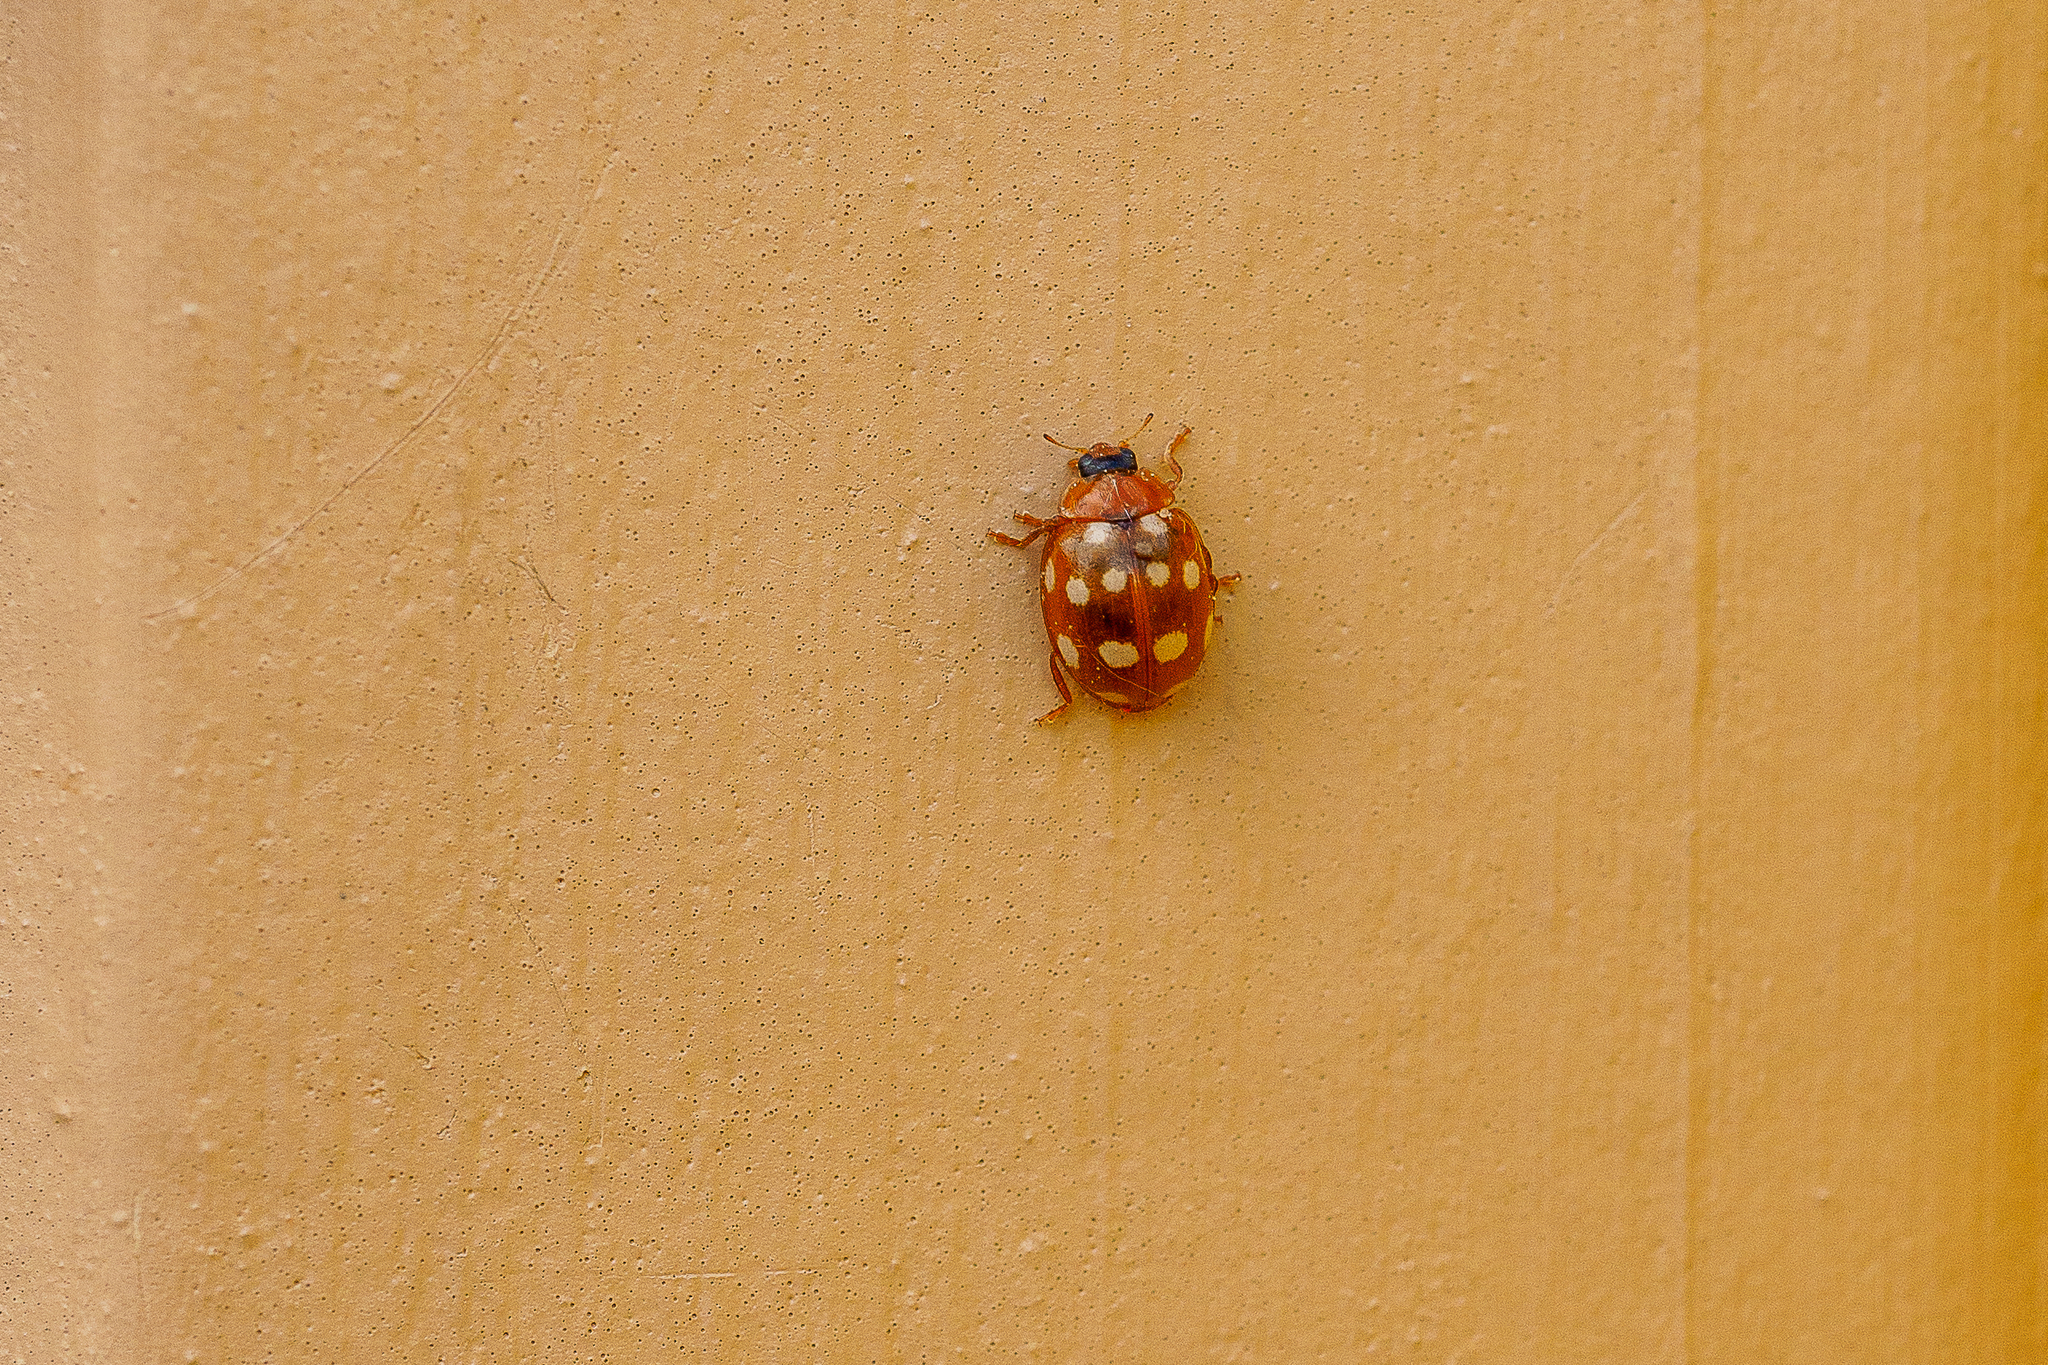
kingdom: Animalia
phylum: Arthropoda
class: Insecta
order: Coleoptera
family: Coccinellidae
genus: Calvia
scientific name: Calvia quatuordecimguttata
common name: Cream-spot ladybird
